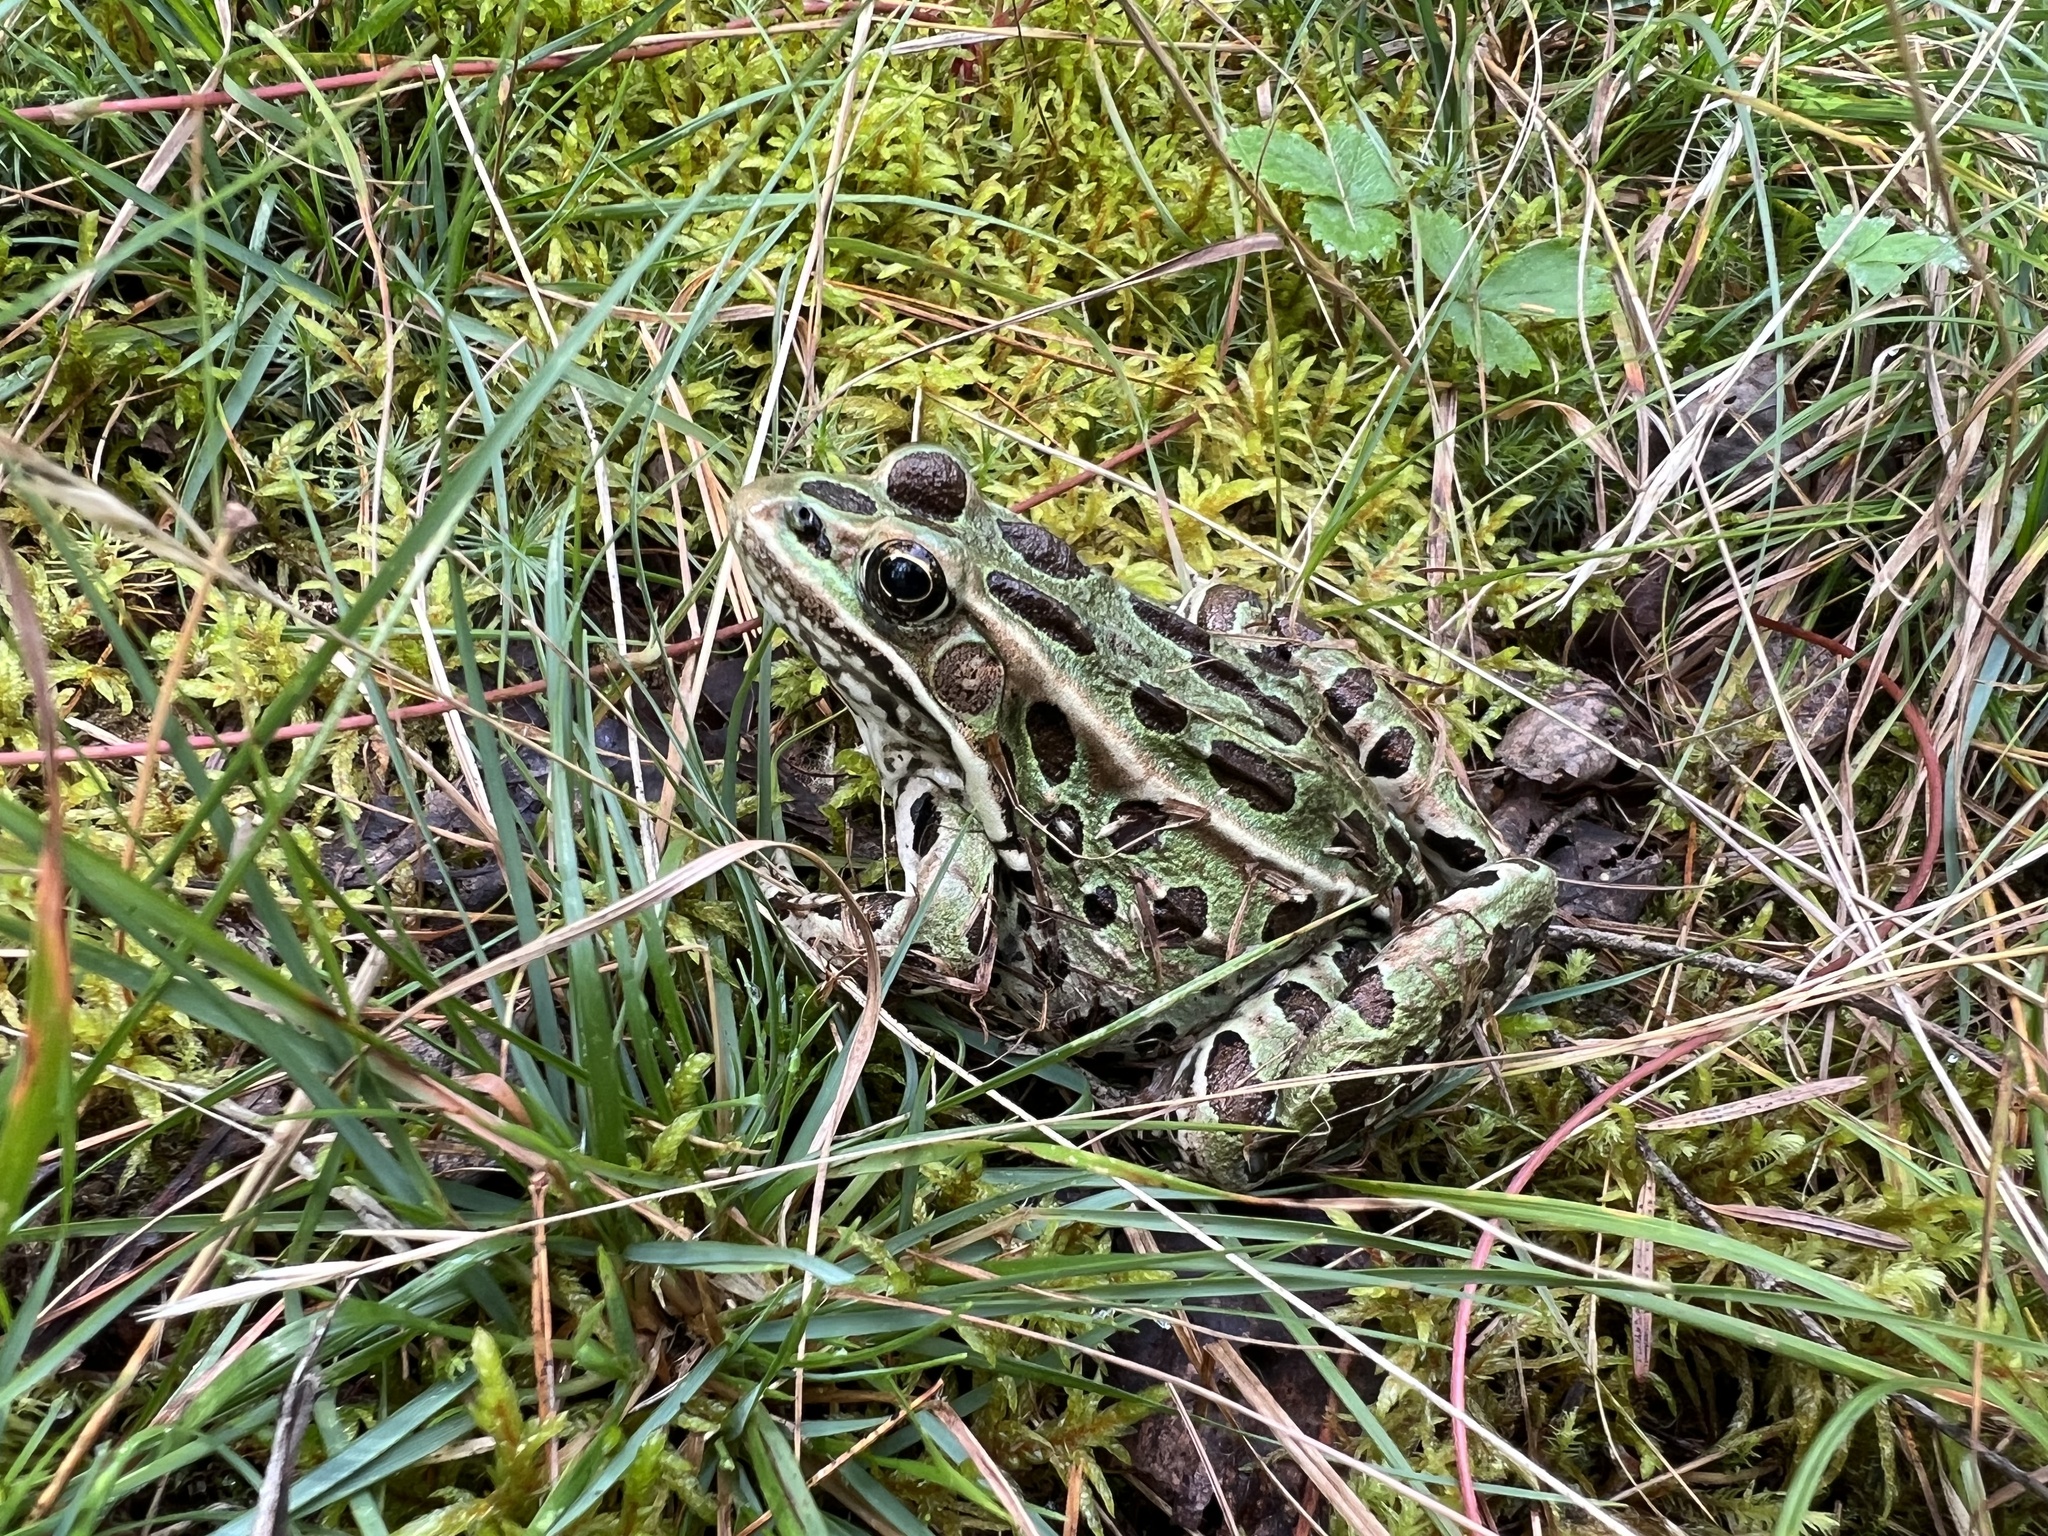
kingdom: Animalia
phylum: Chordata
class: Amphibia
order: Anura
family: Ranidae
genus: Lithobates
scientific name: Lithobates pipiens
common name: Northern leopard frog
